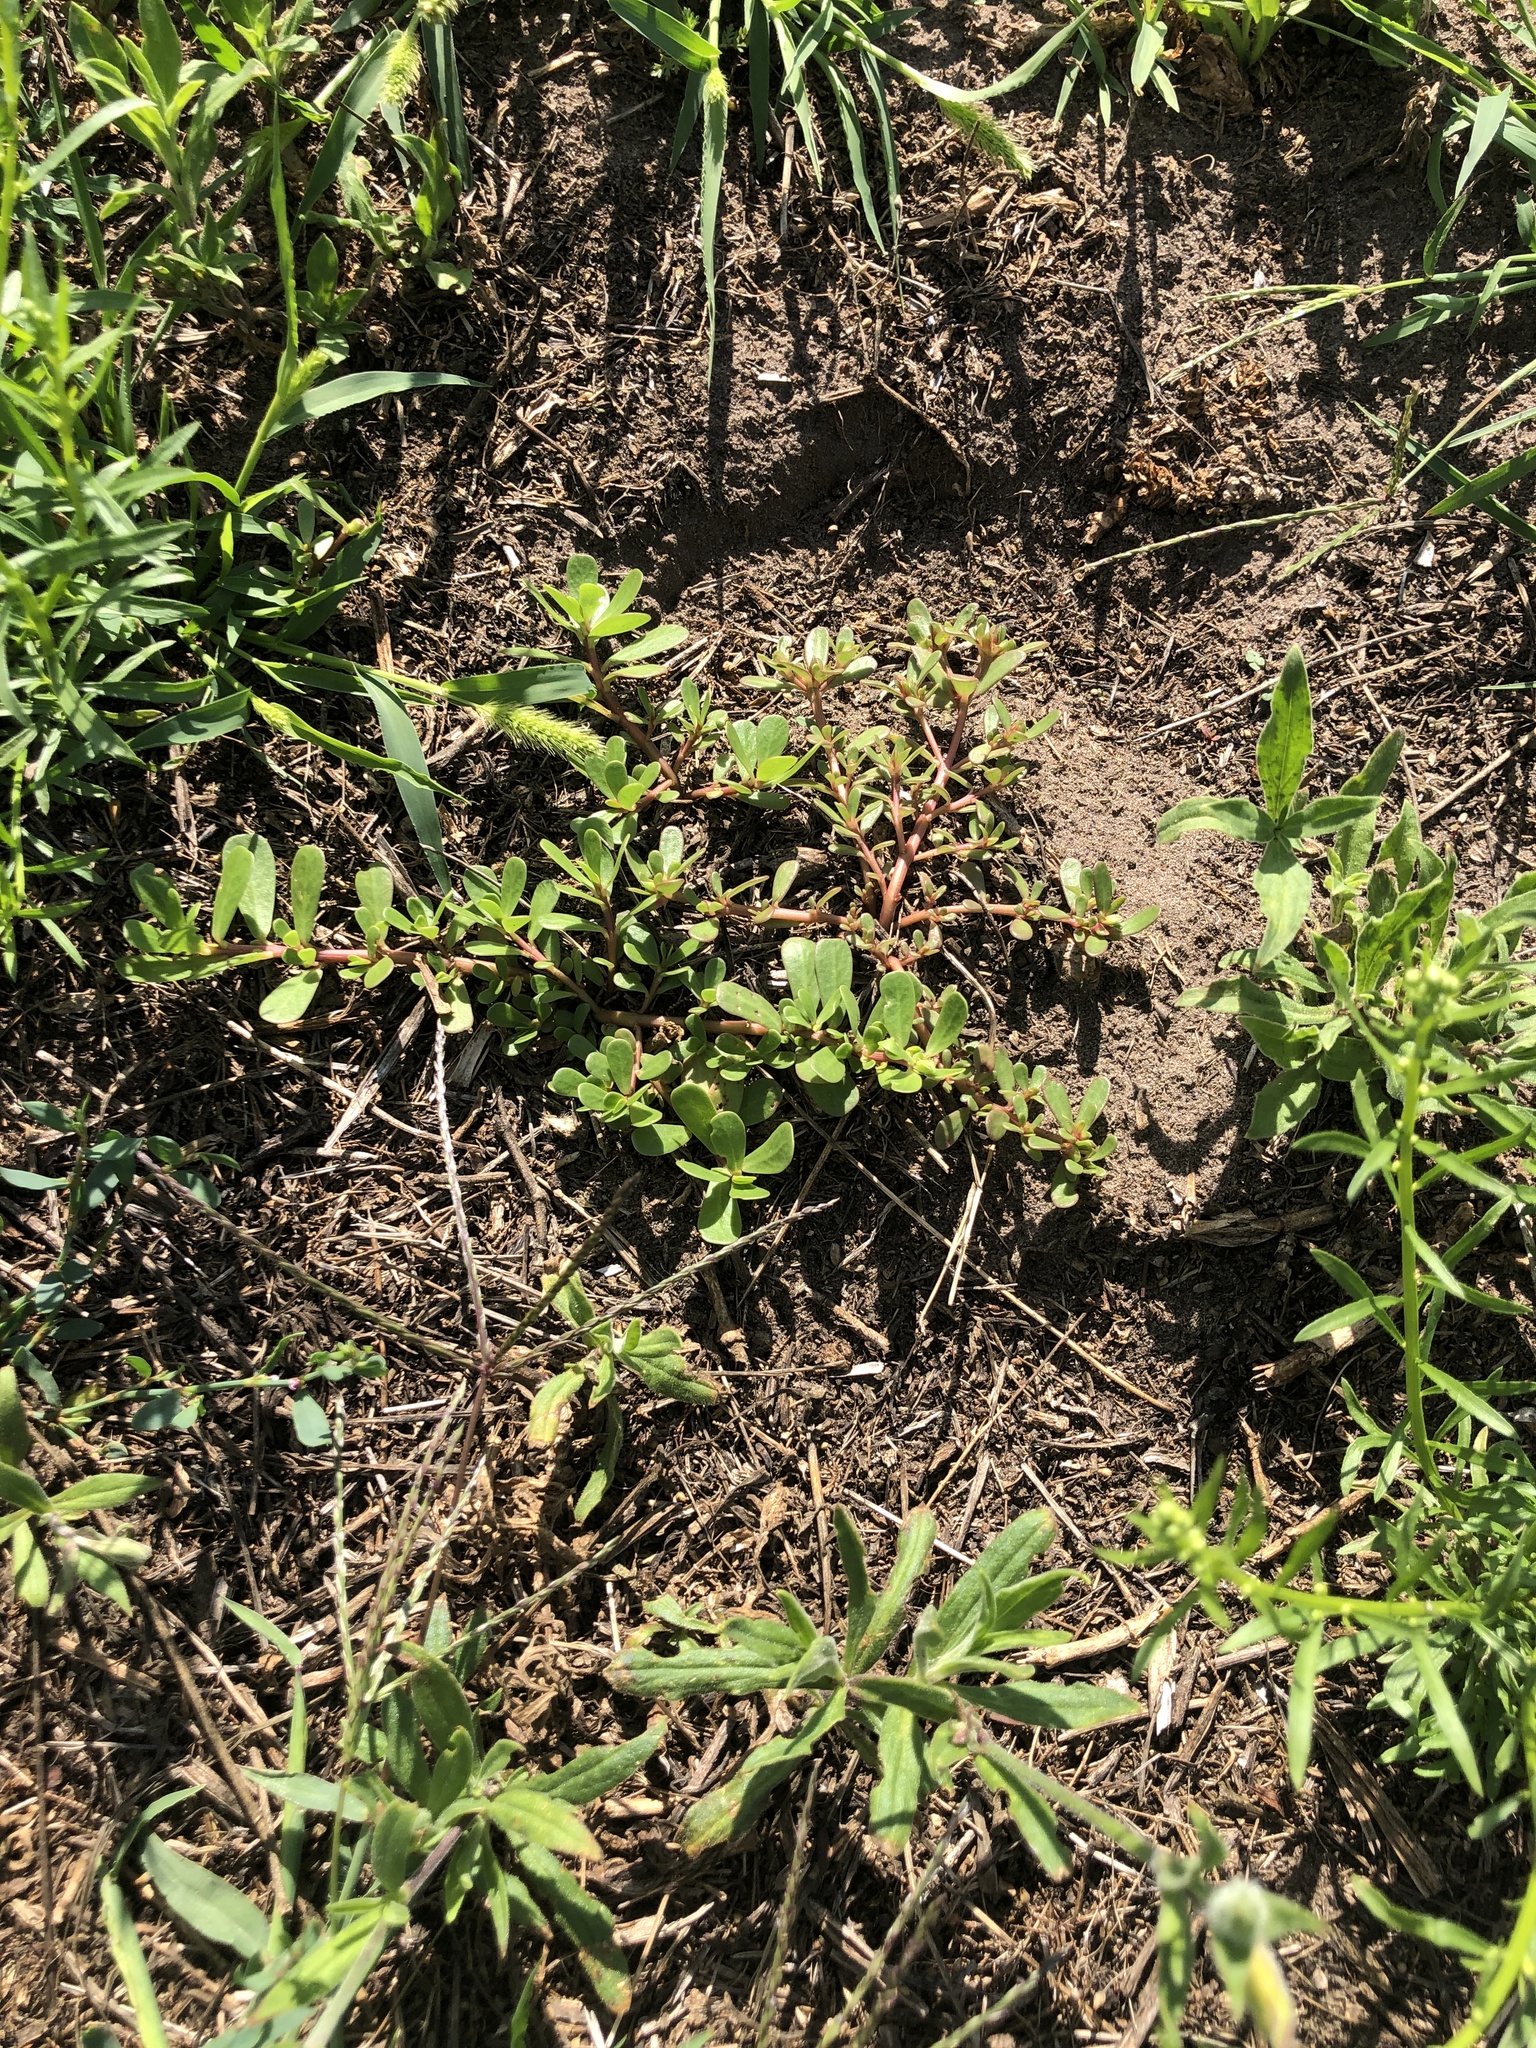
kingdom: Plantae
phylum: Tracheophyta
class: Magnoliopsida
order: Caryophyllales
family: Portulacaceae
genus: Portulaca
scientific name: Portulaca oleracea
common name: Common purslane
